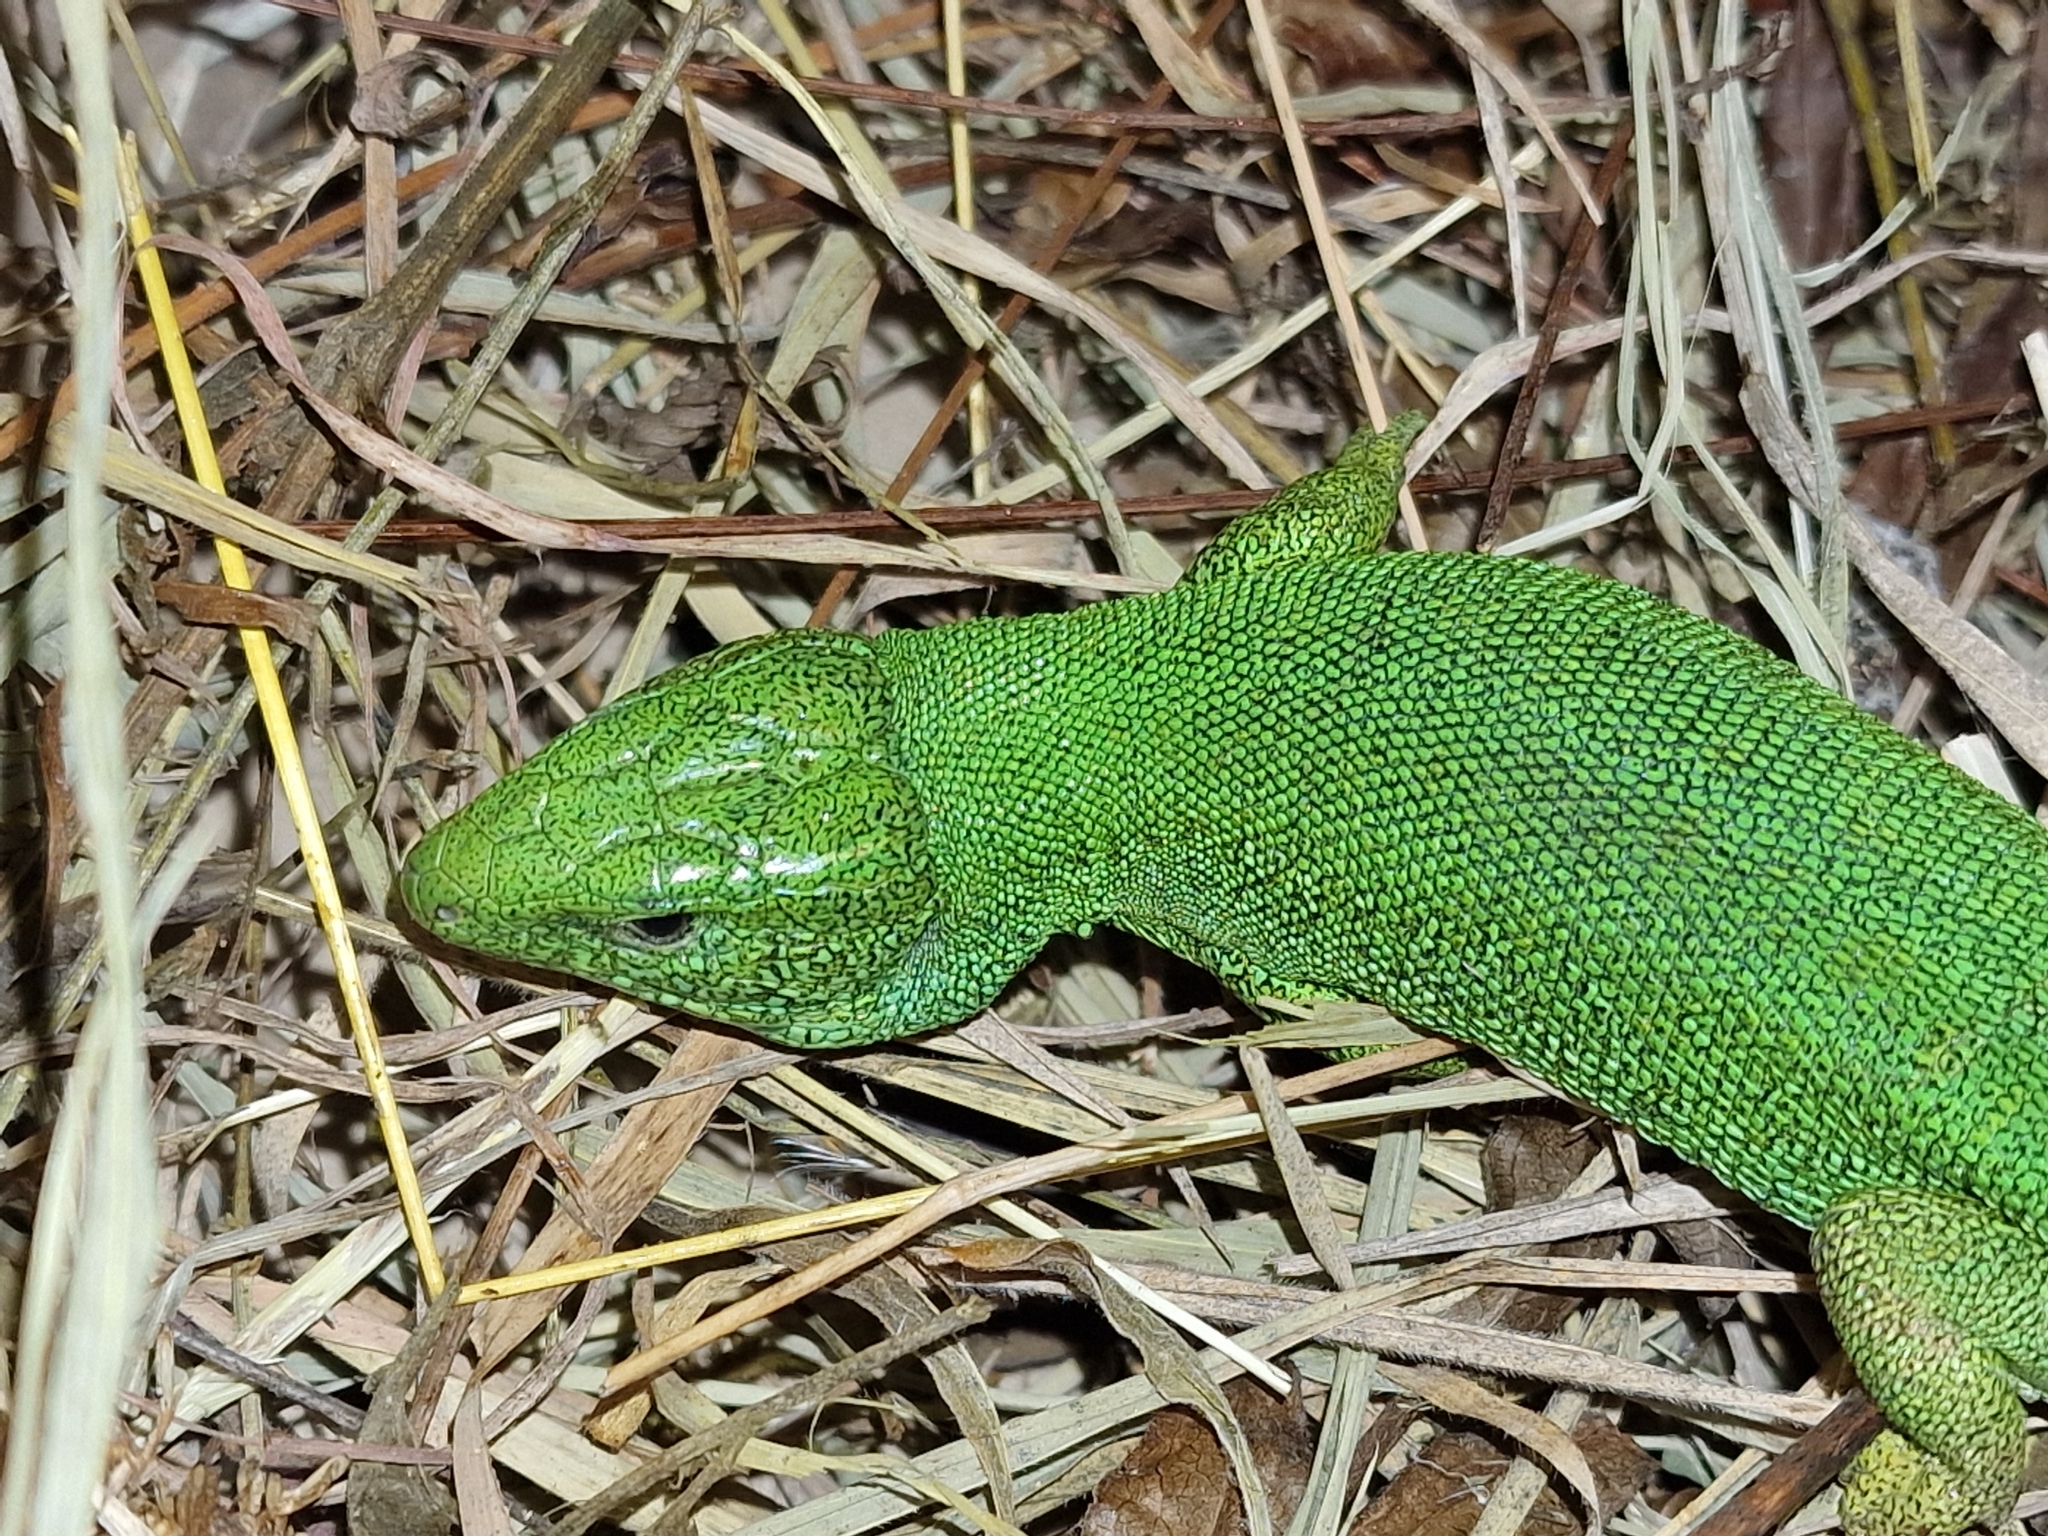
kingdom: Animalia
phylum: Chordata
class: Squamata
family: Lacertidae
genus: Lacerta
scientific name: Lacerta agilis
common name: Sand lizard
